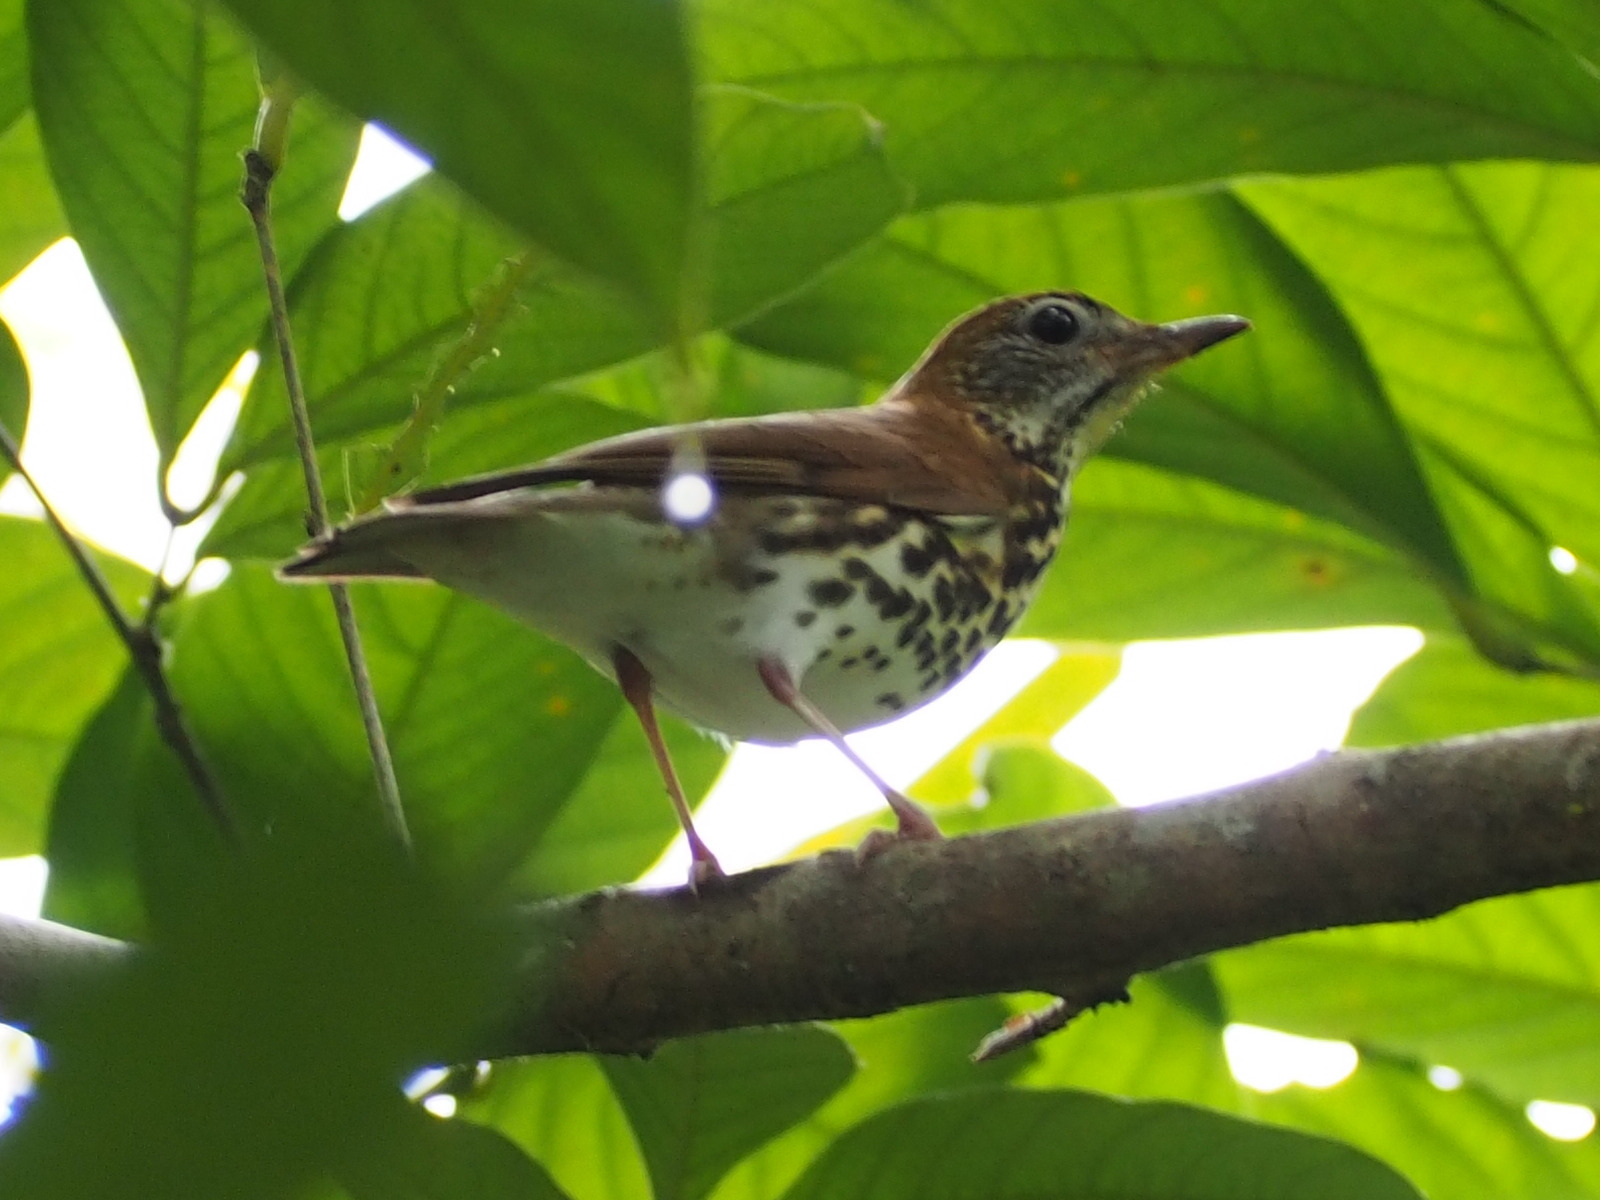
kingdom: Animalia
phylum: Chordata
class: Aves
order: Passeriformes
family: Turdidae
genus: Hylocichla
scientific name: Hylocichla mustelina
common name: Wood thrush
